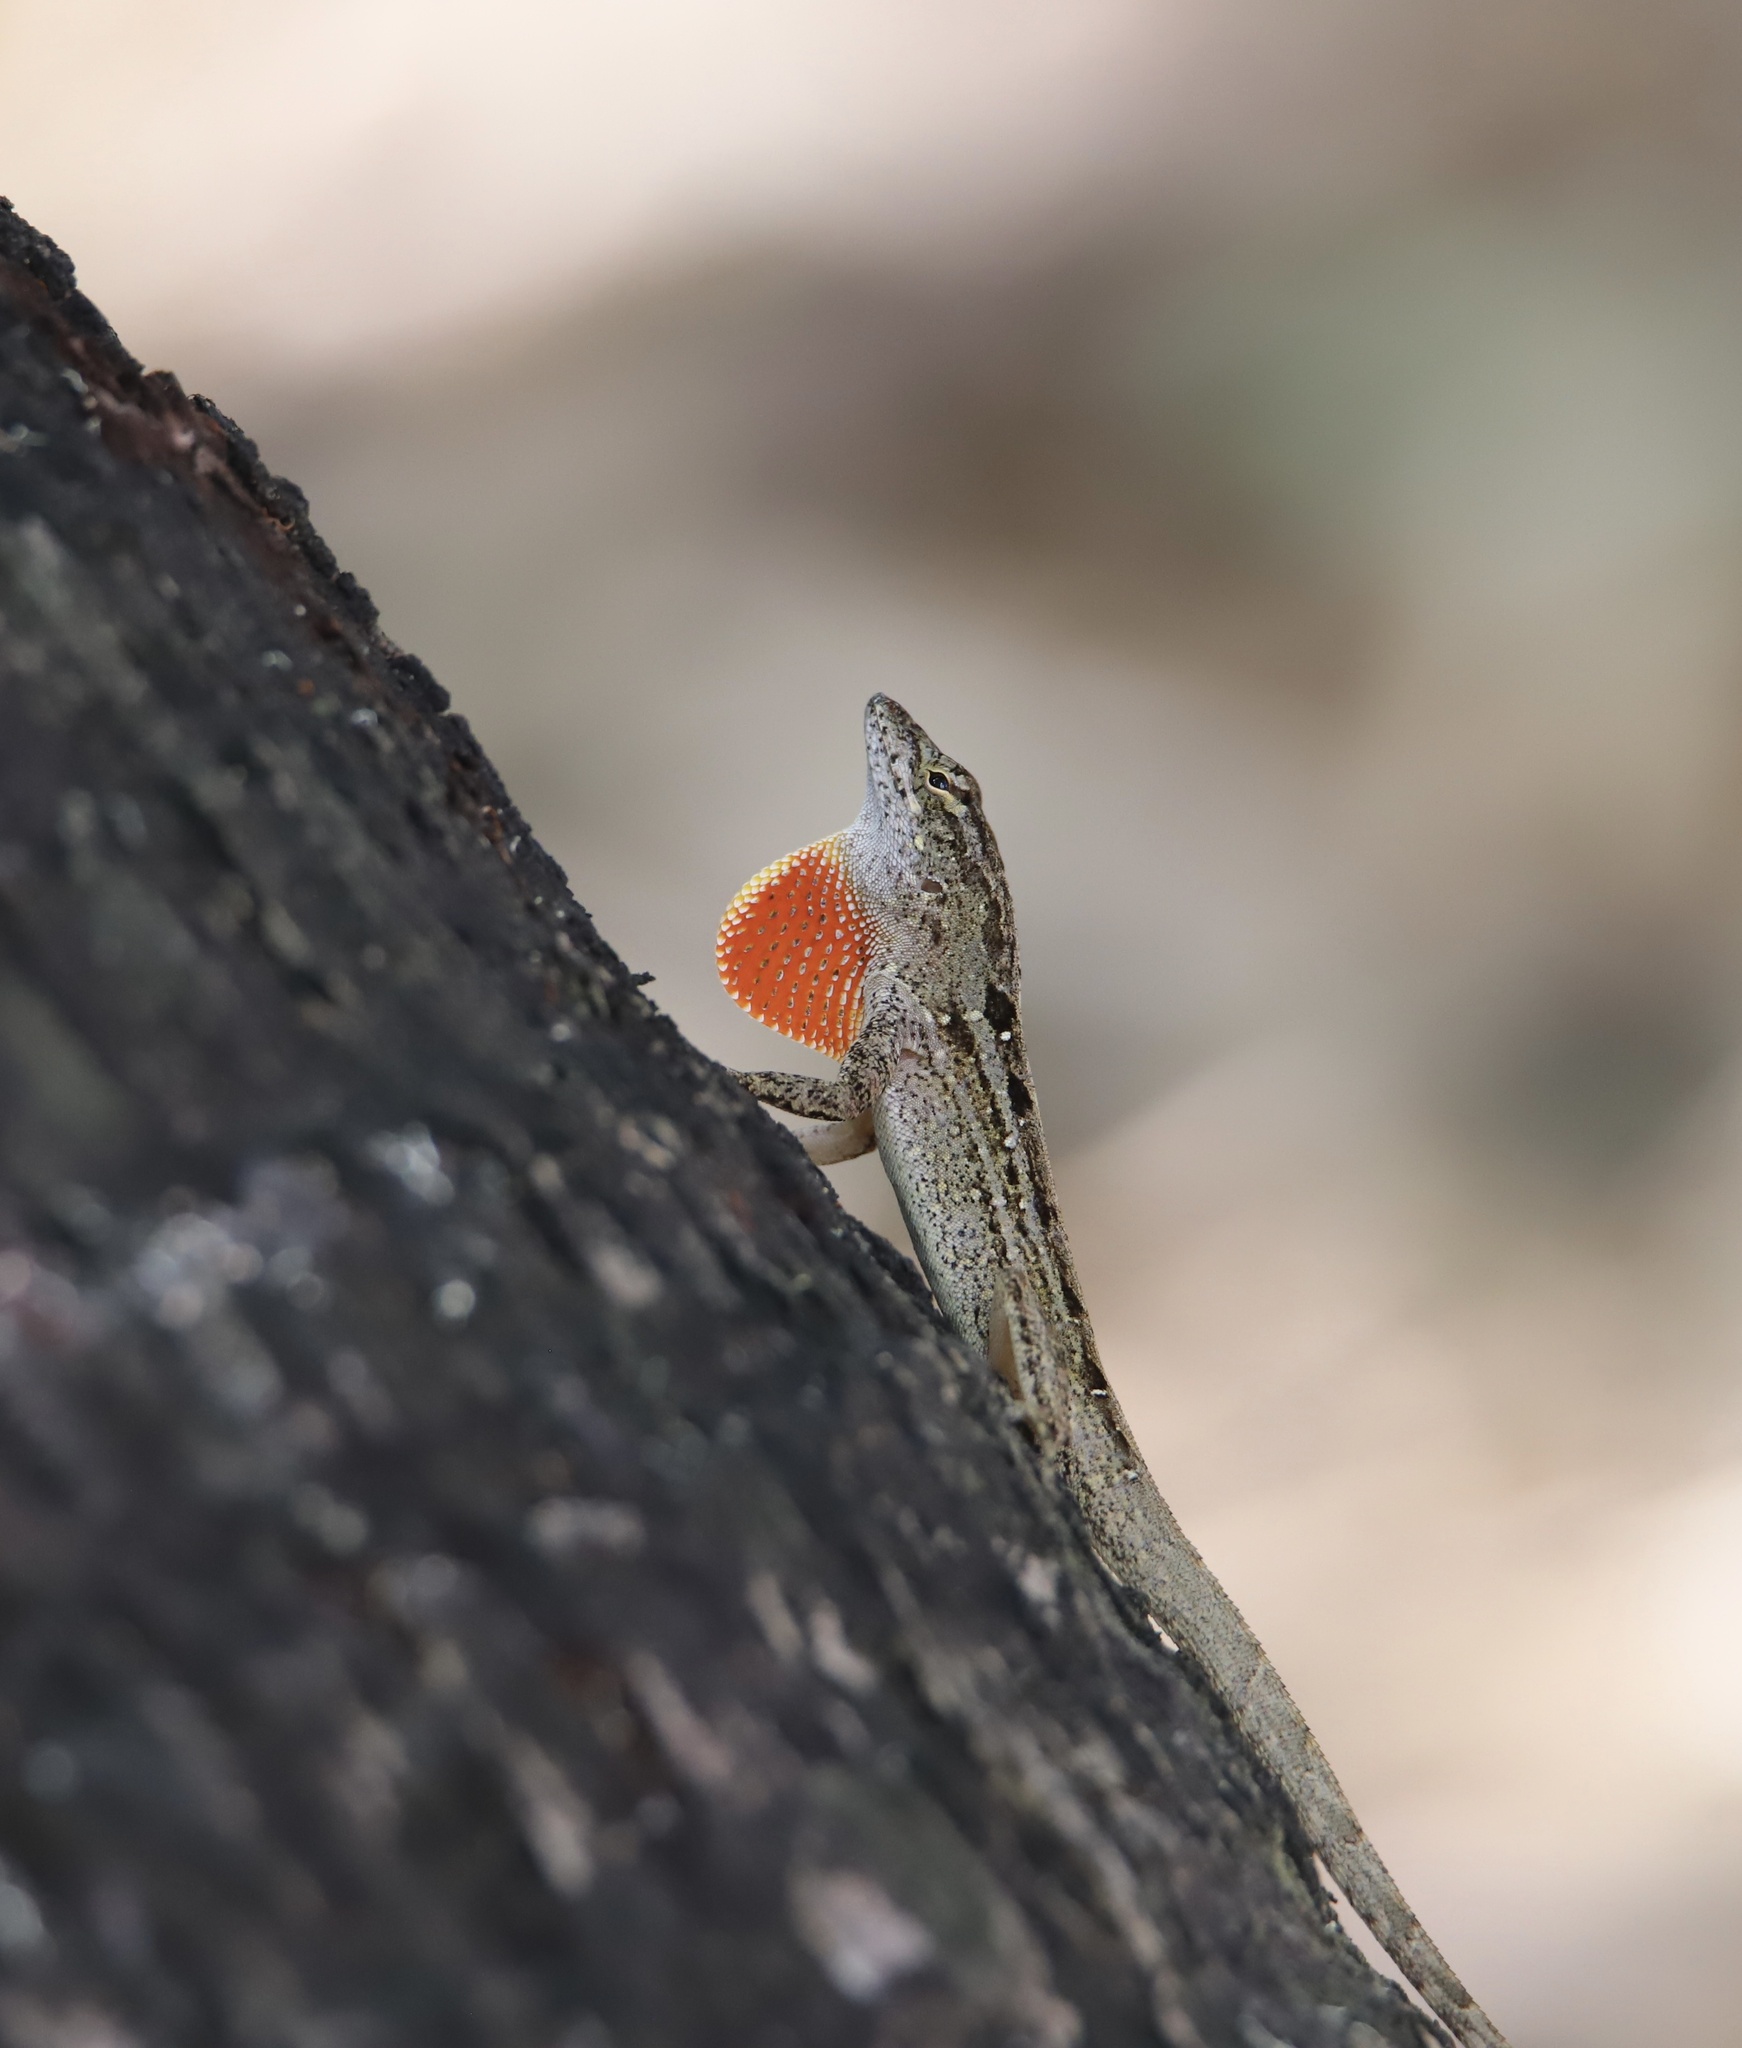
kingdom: Animalia
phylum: Chordata
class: Squamata
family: Dactyloidae
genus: Anolis
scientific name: Anolis sagrei
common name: Brown anole
